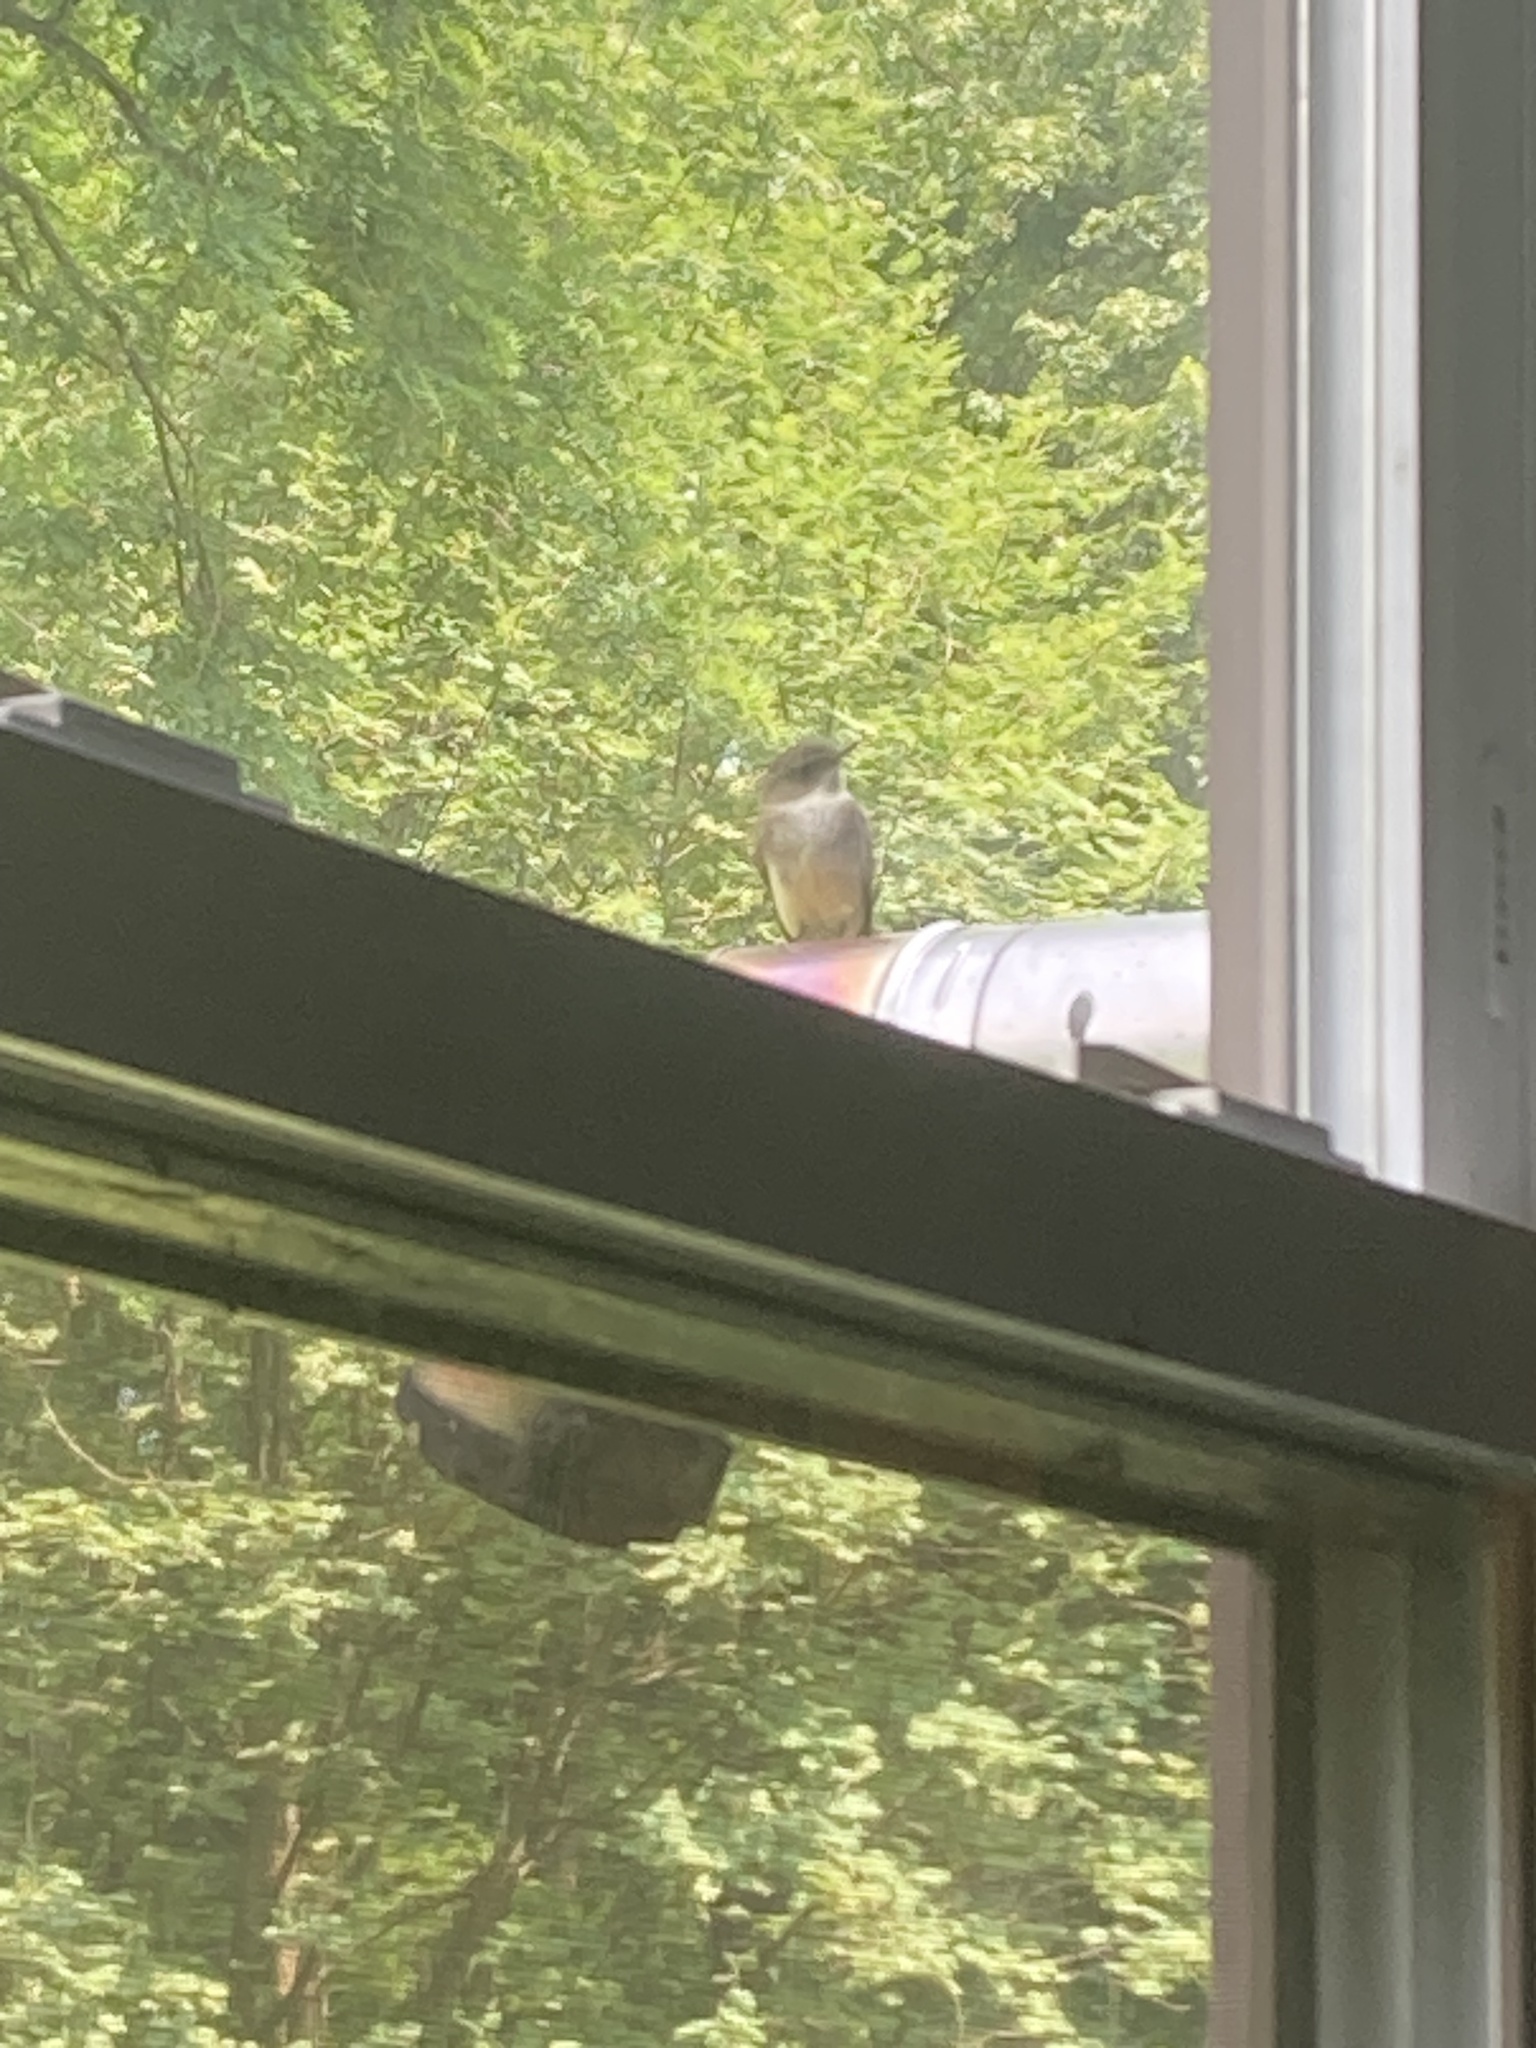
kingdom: Animalia
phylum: Chordata
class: Aves
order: Passeriformes
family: Tyrannidae
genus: Sayornis
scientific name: Sayornis phoebe
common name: Eastern phoebe
